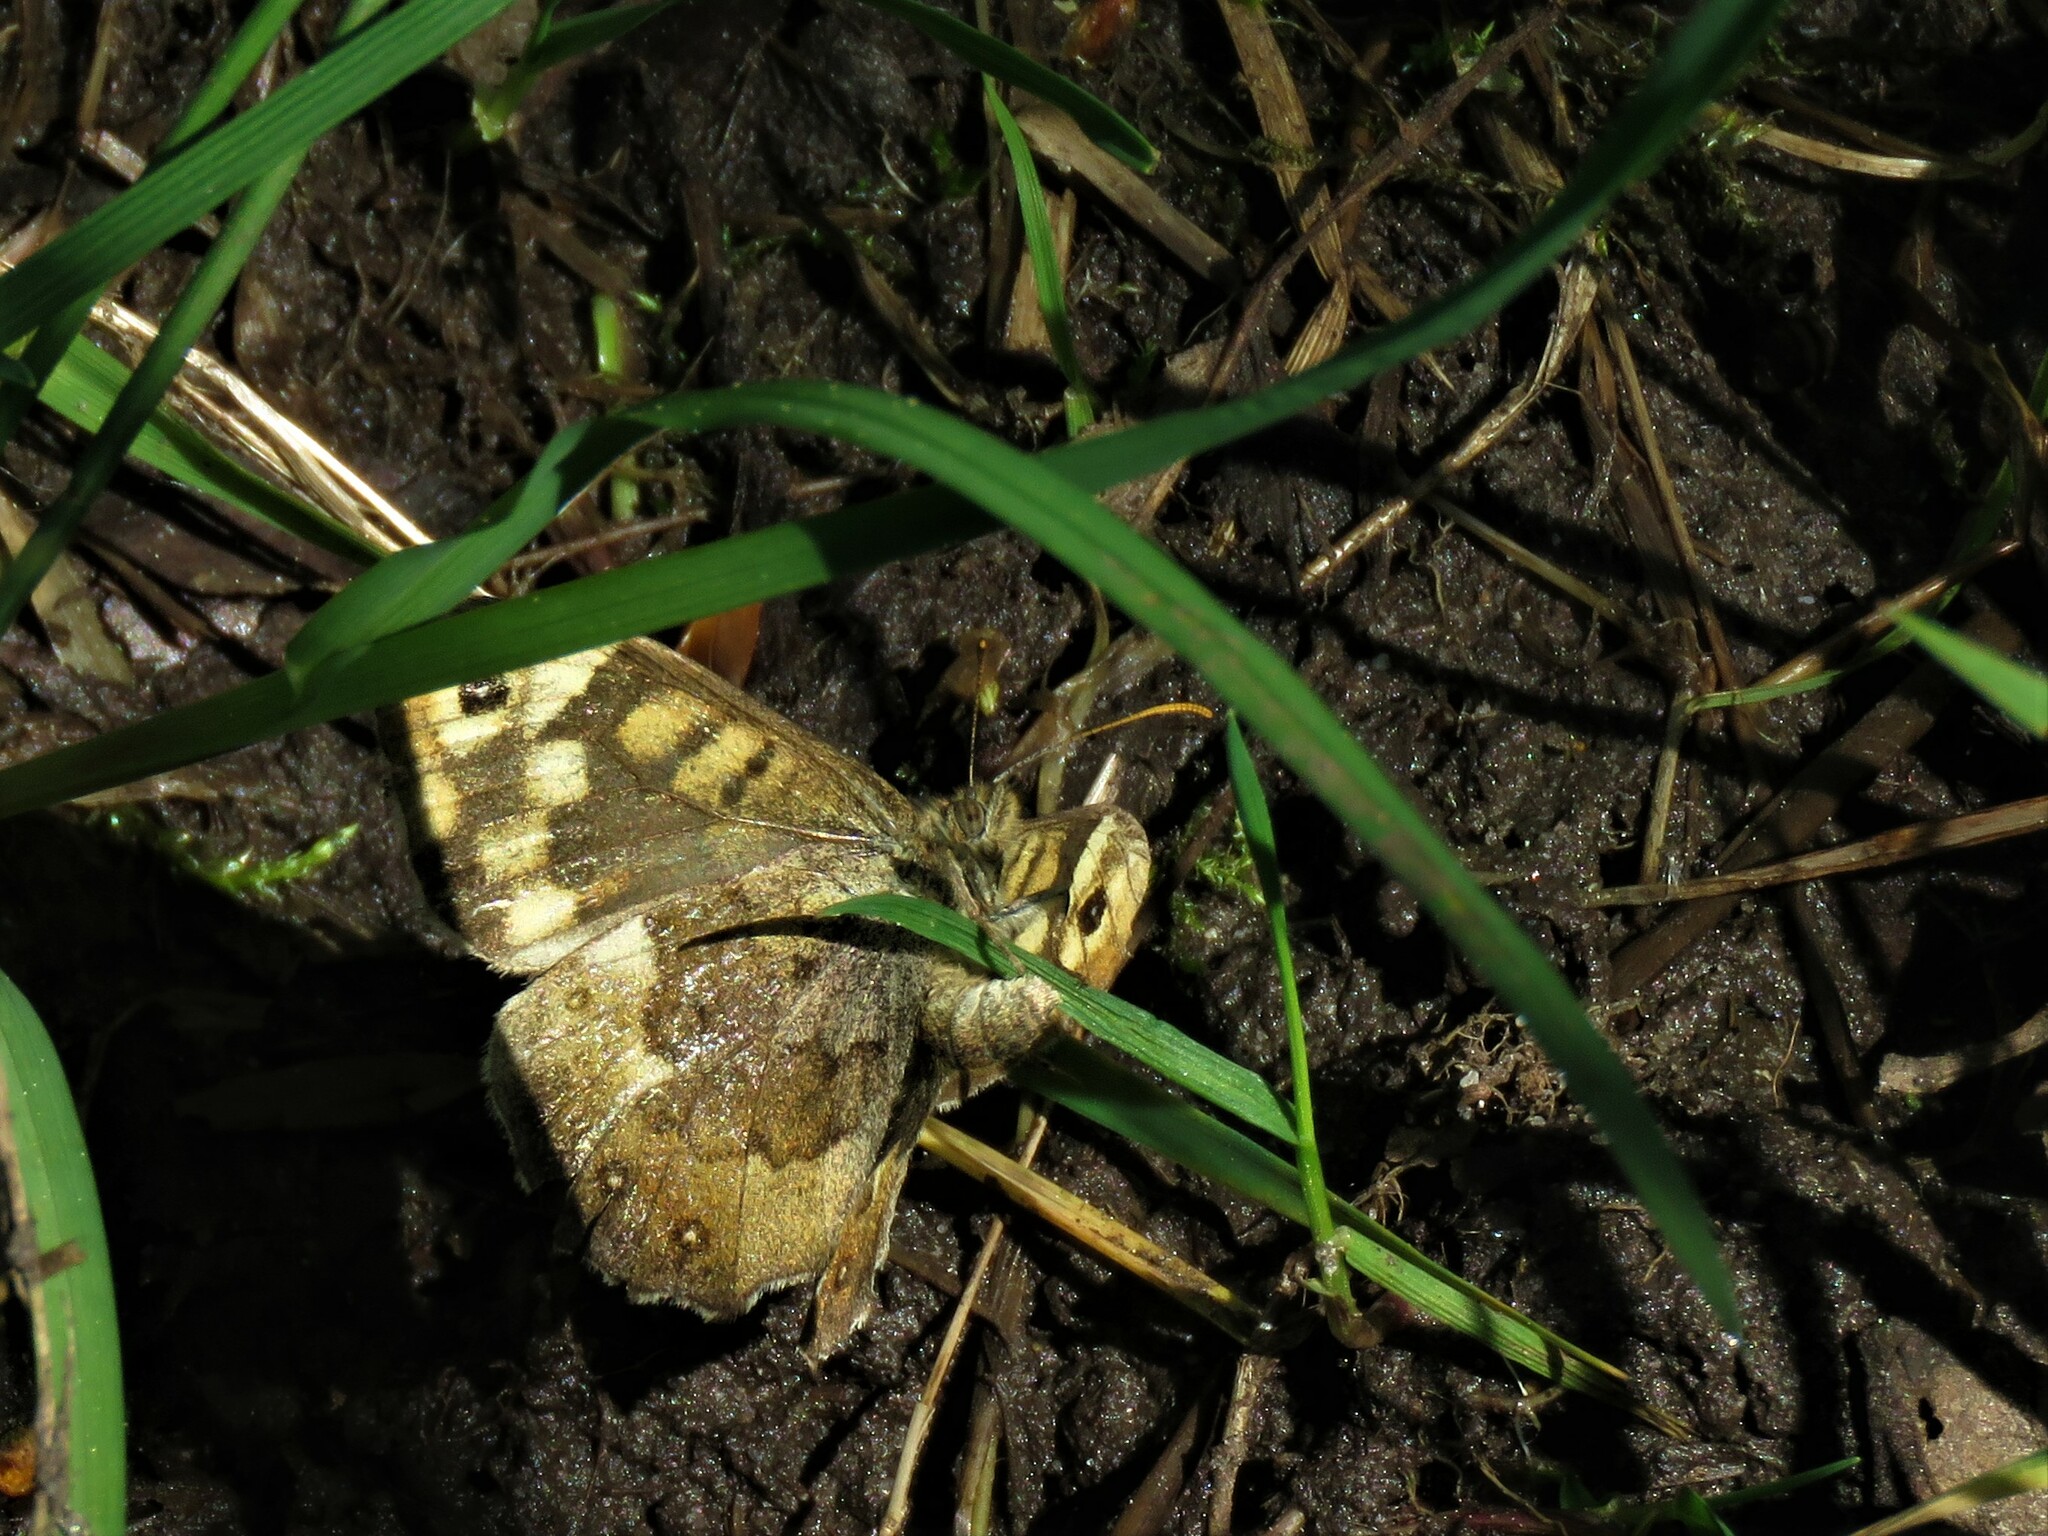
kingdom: Animalia
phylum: Arthropoda
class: Insecta
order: Lepidoptera
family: Nymphalidae
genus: Pararge
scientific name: Pararge aegeria
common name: Speckled wood
